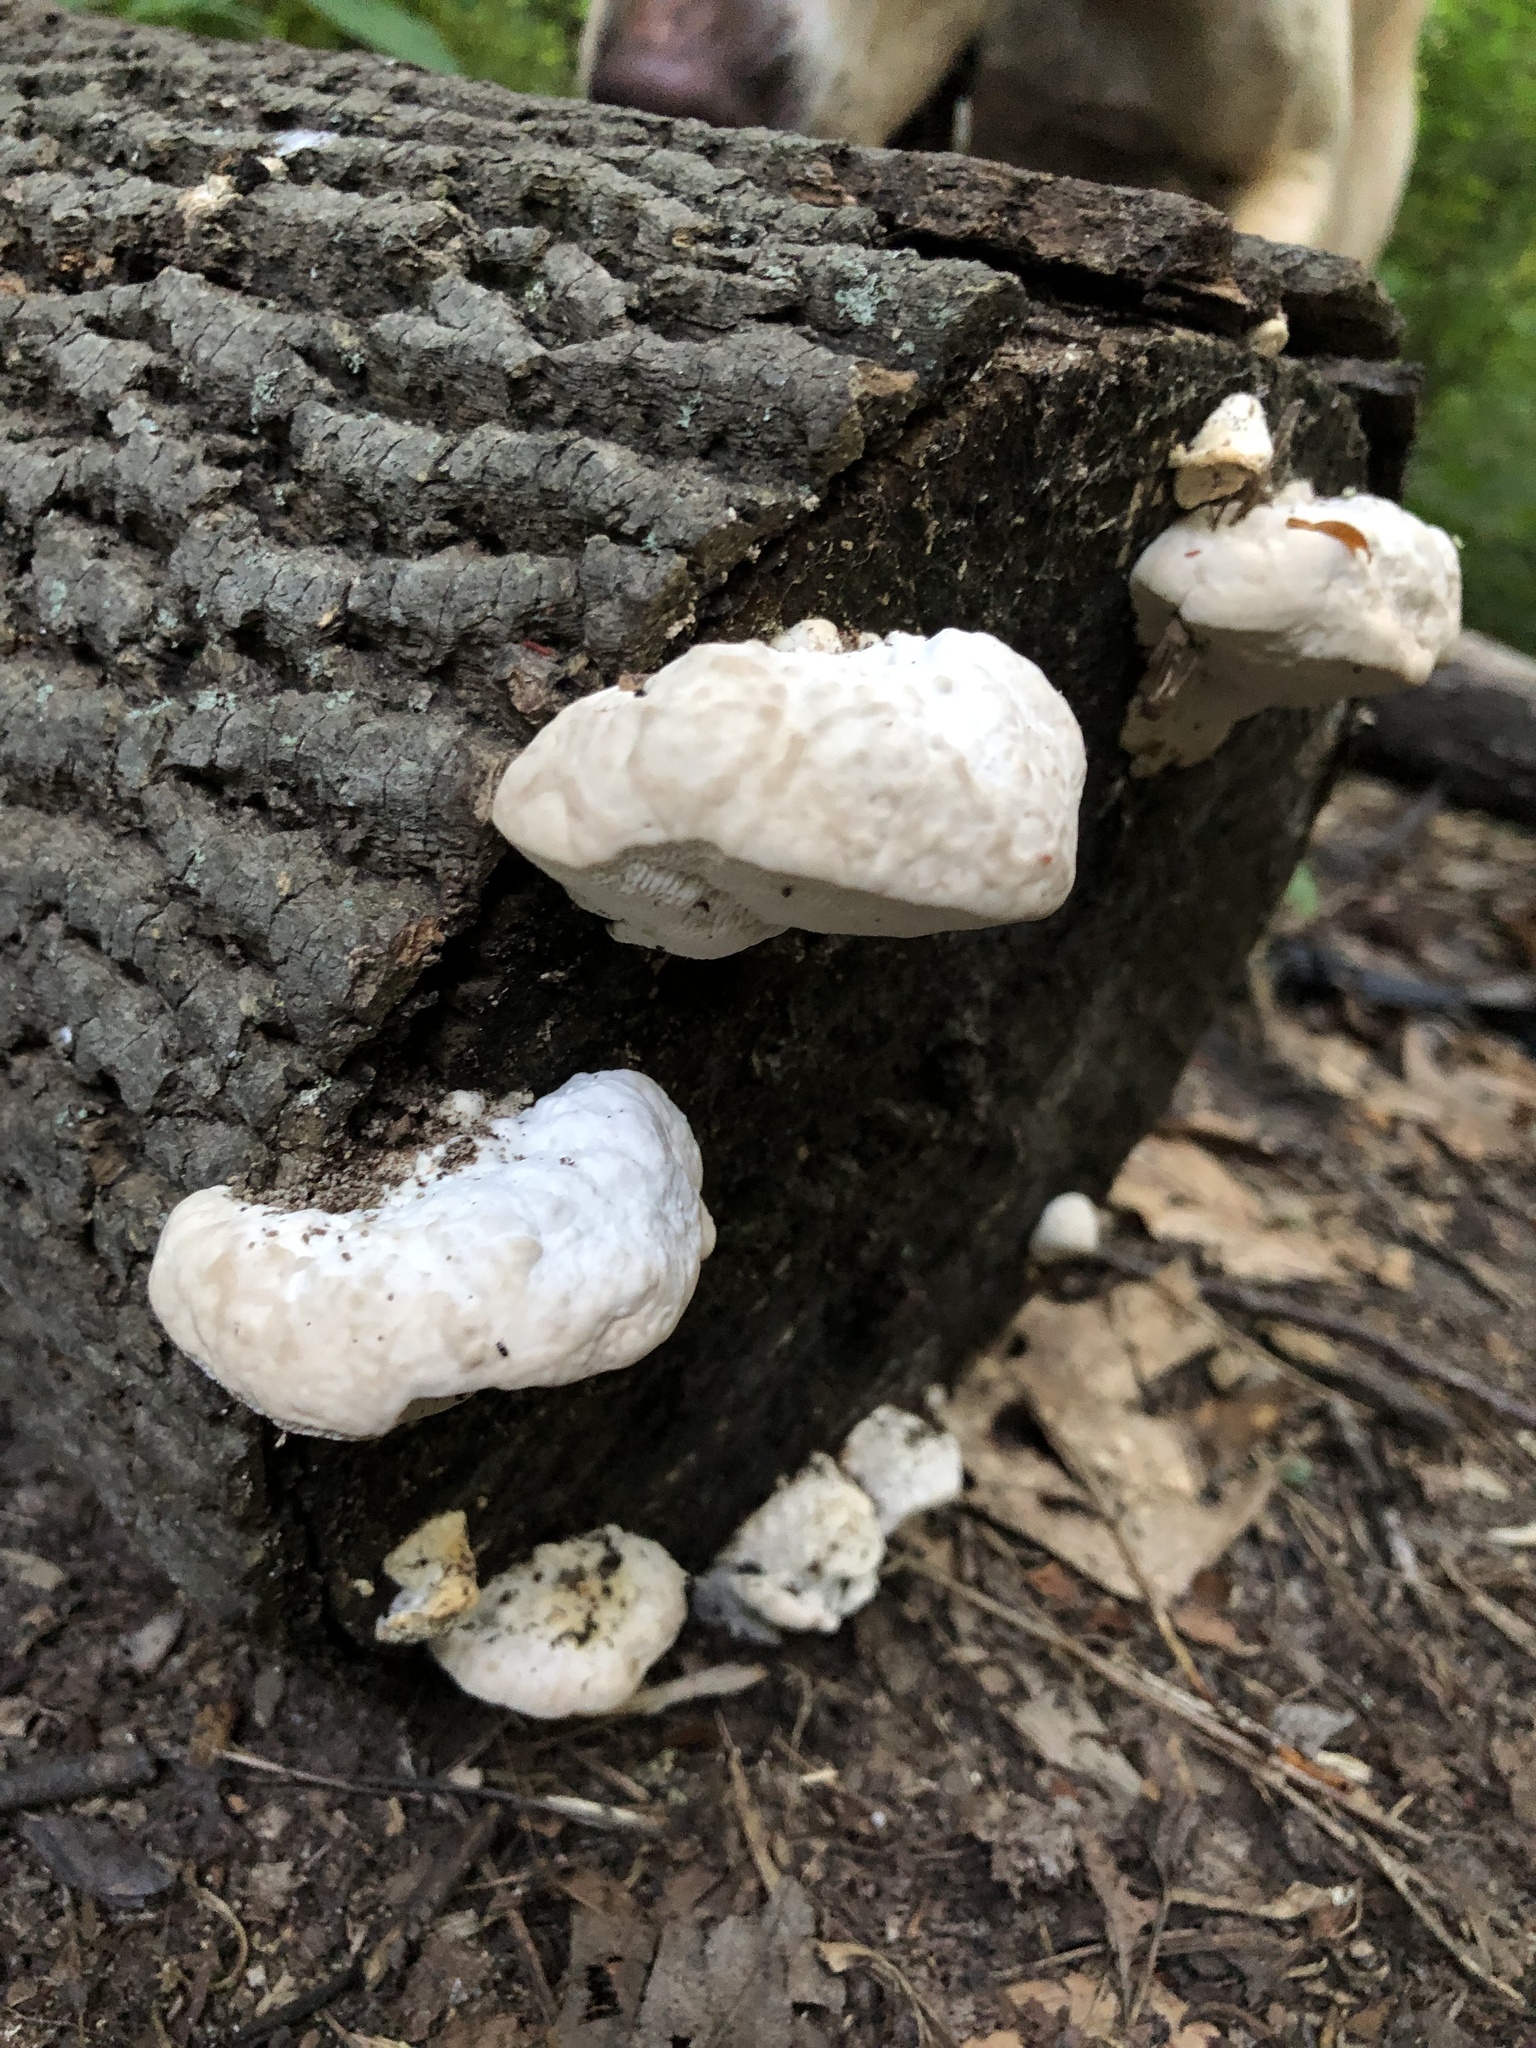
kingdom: Fungi
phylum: Basidiomycota
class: Agaricomycetes
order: Polyporales
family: Polyporaceae
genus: Trametes
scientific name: Trametes gibbosa
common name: Lumpy bracket
